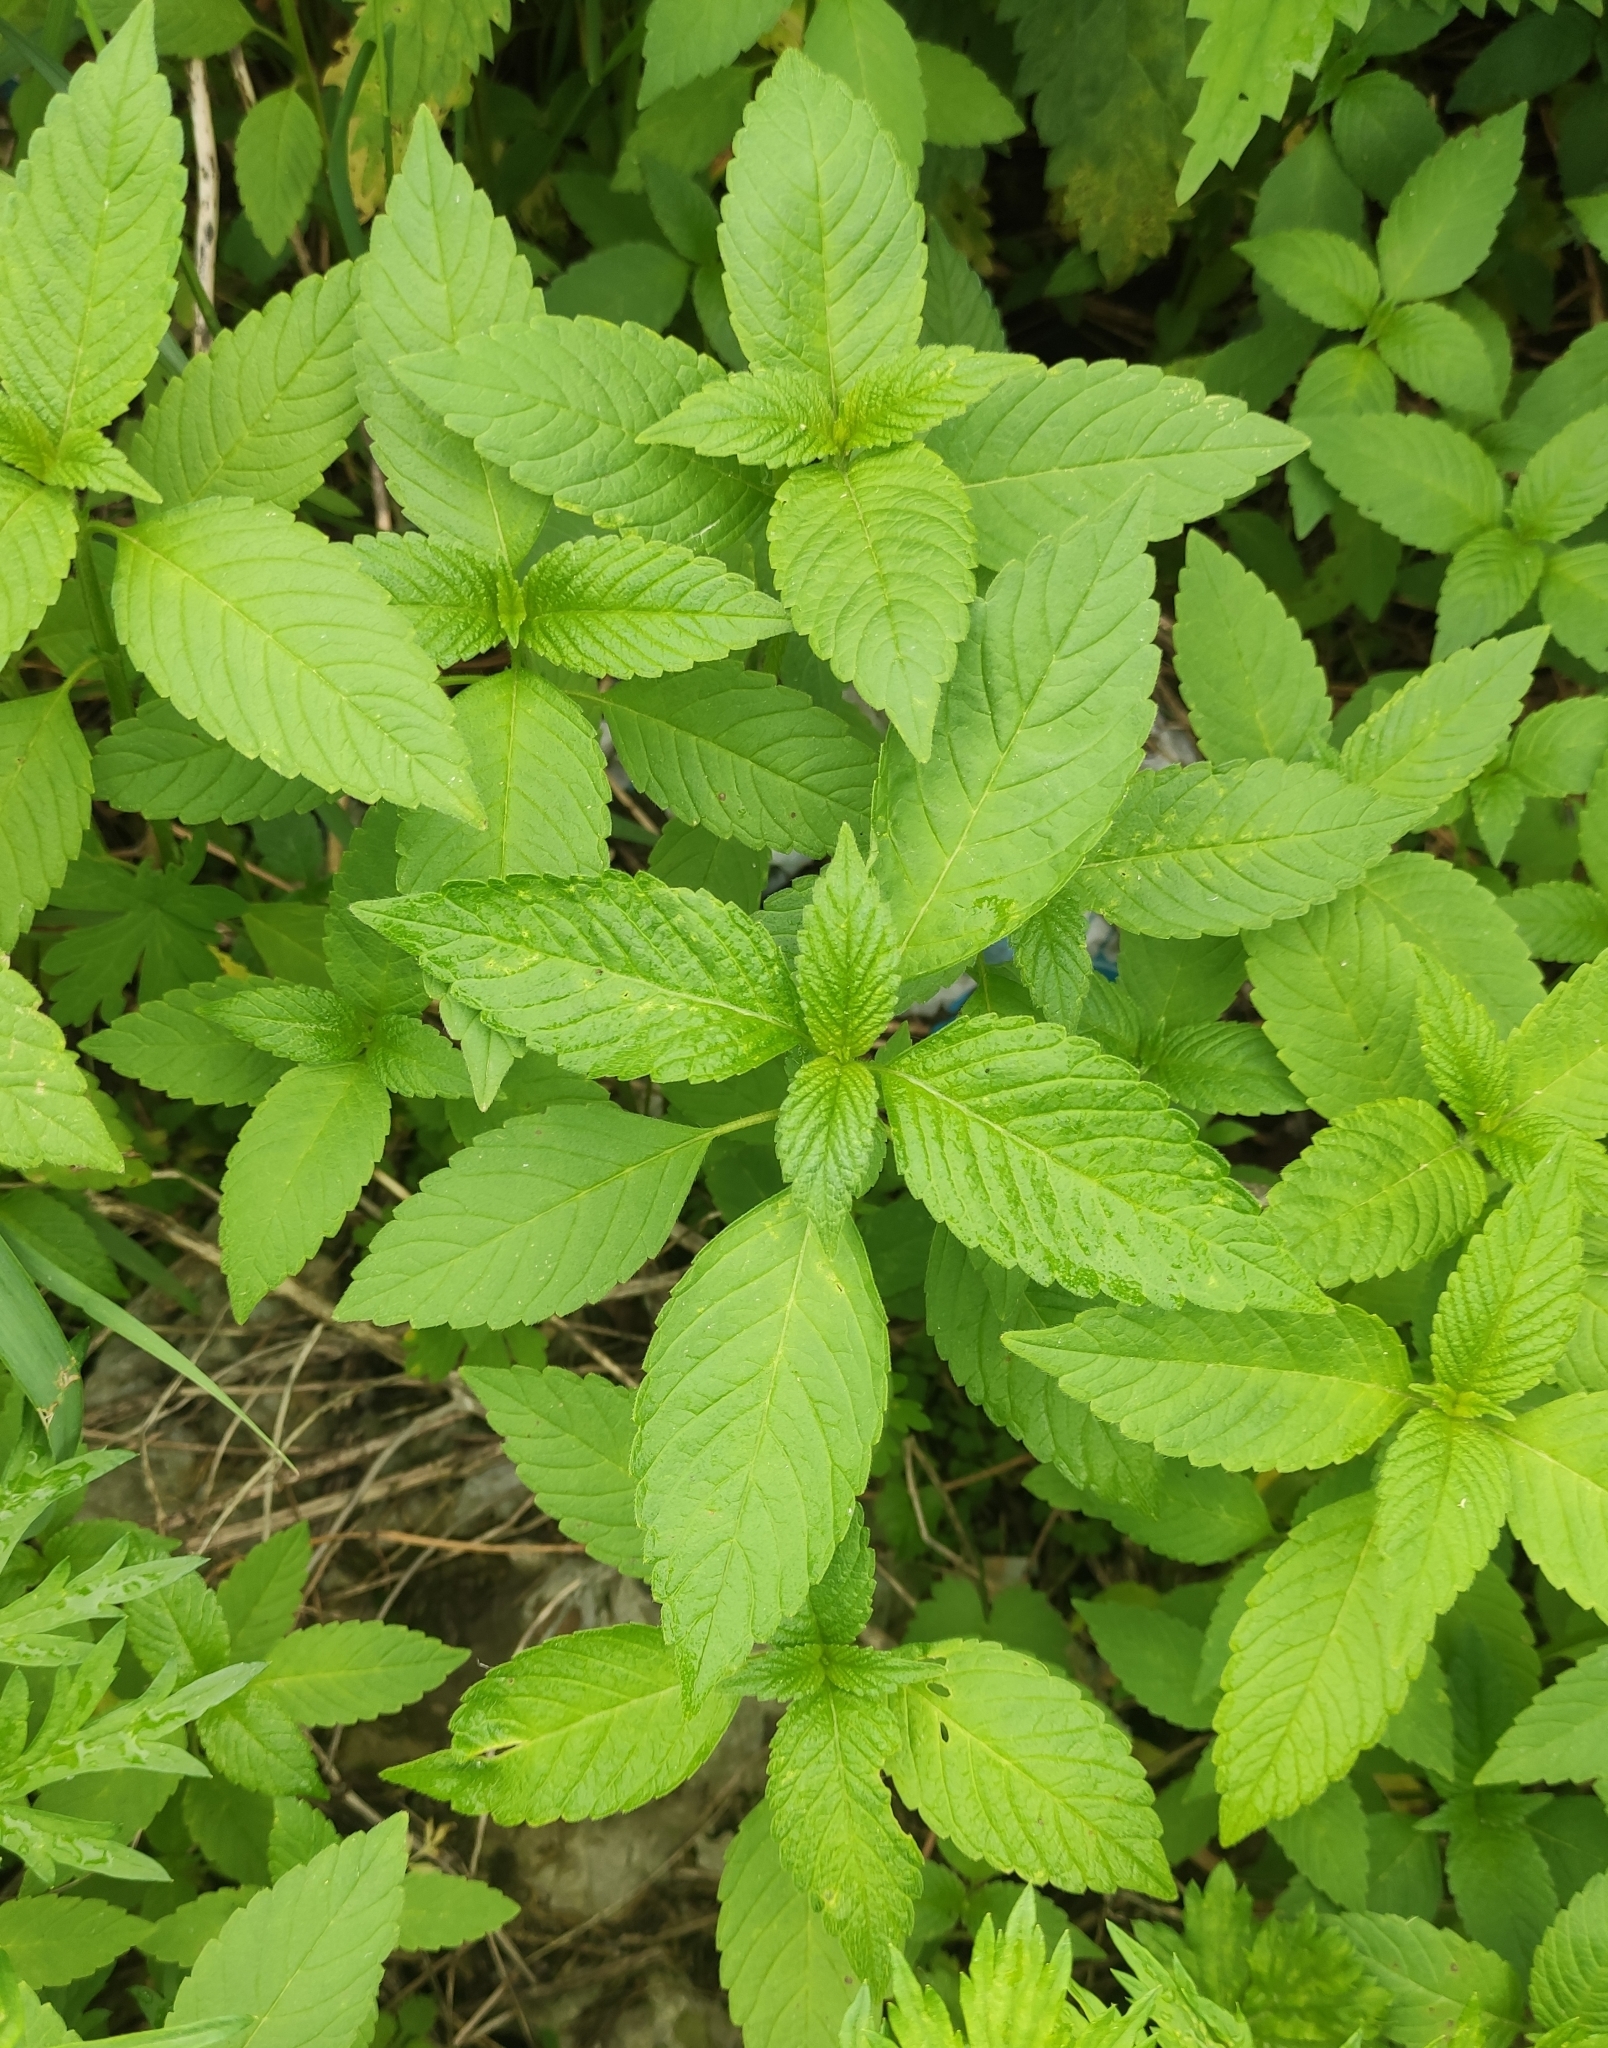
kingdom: Plantae
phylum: Tracheophyta
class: Magnoliopsida
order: Lamiales
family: Lamiaceae
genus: Galeopsis
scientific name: Galeopsis bifida
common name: Bifid hemp-nettle
